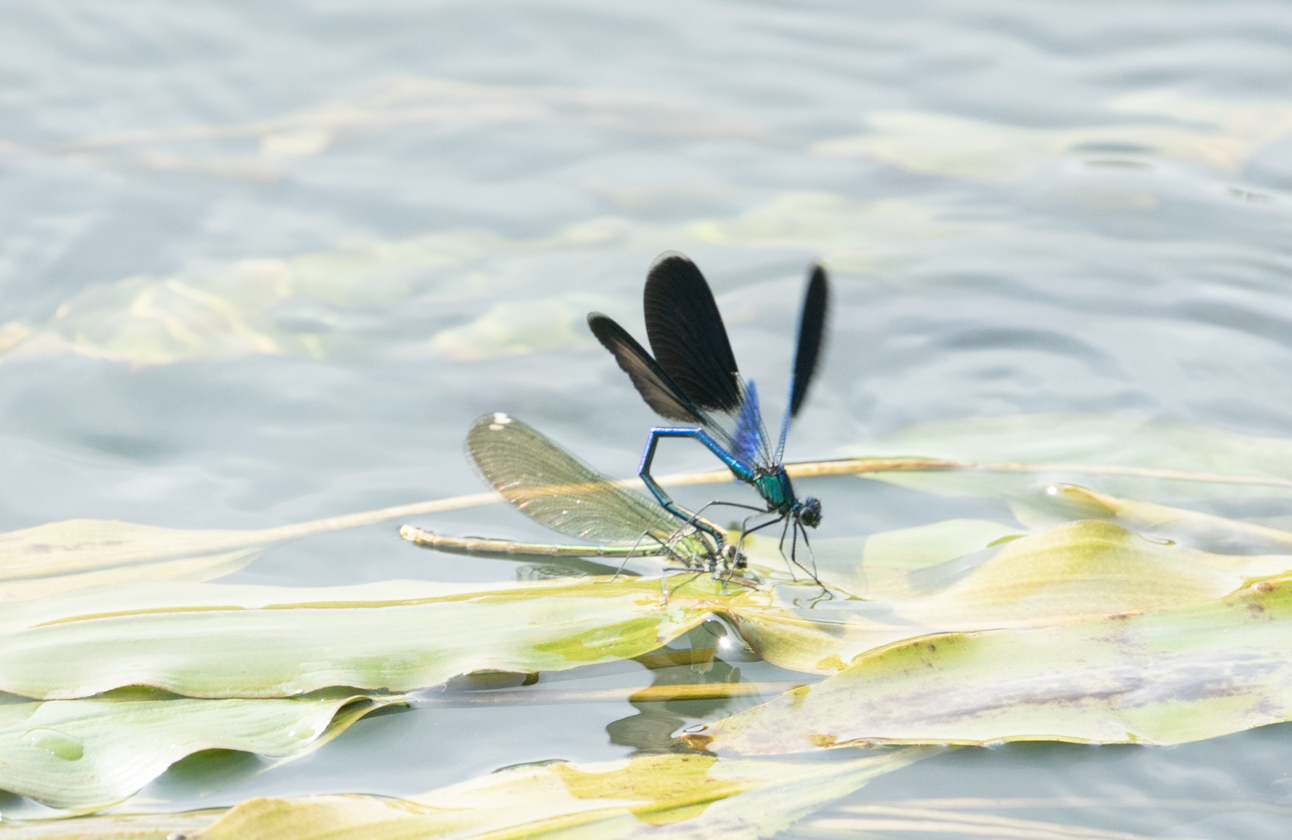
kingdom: Animalia
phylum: Arthropoda
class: Insecta
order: Odonata
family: Calopterygidae
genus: Calopteryx
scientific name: Calopteryx splendens
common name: Banded demoiselle
